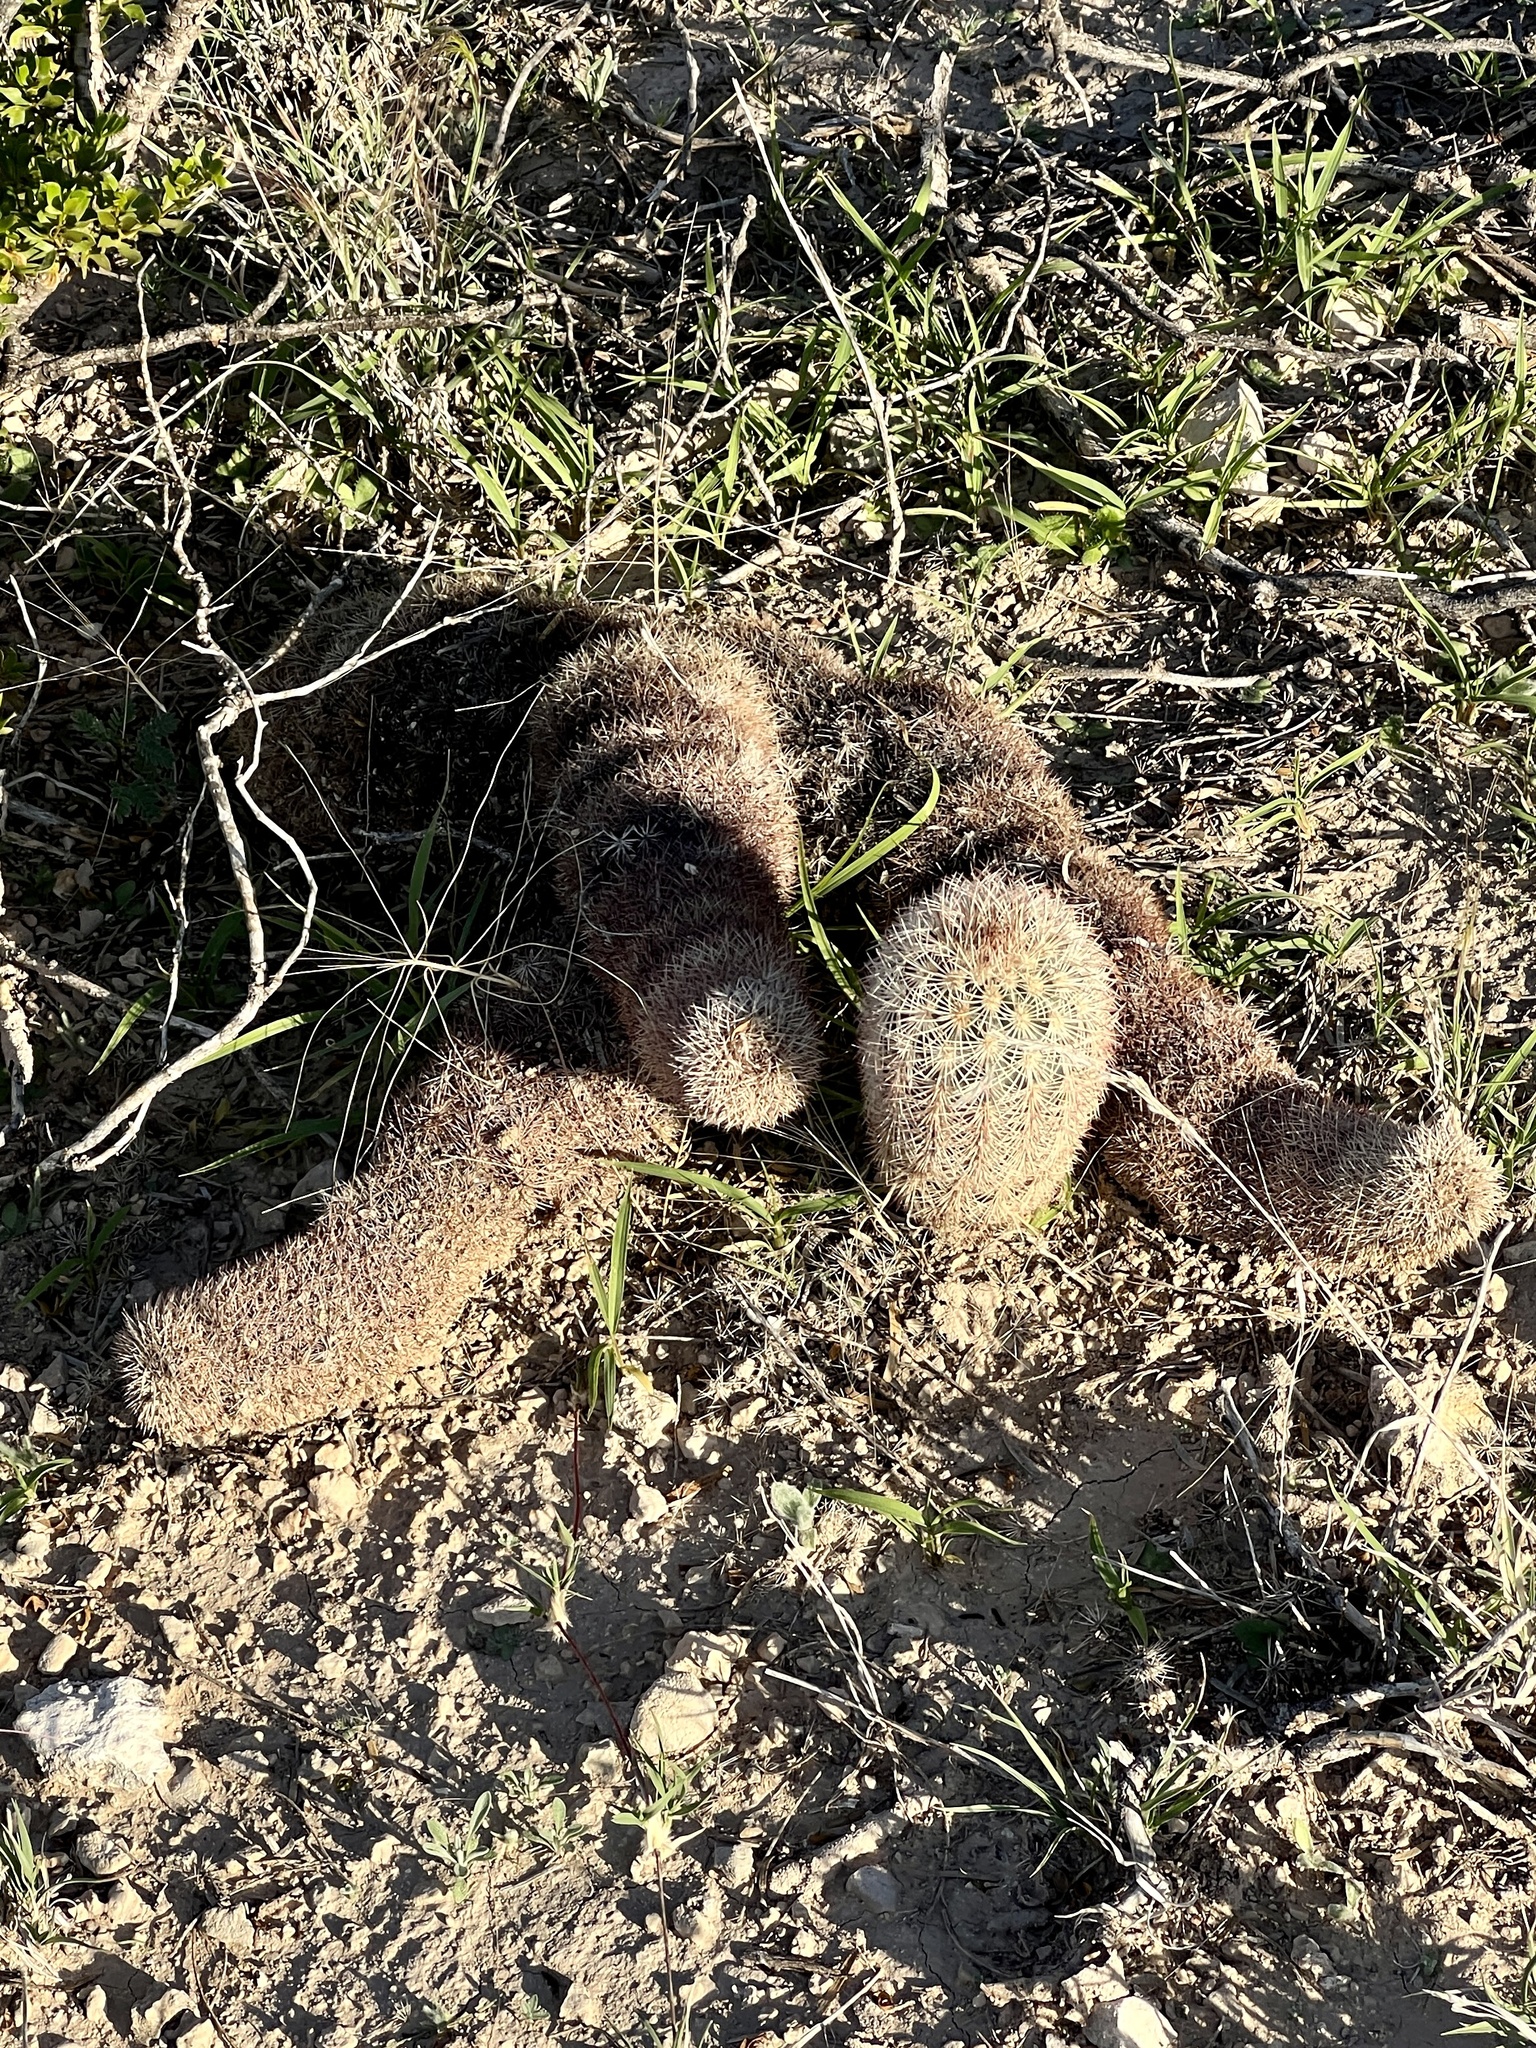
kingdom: Plantae
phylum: Tracheophyta
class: Magnoliopsida
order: Caryophyllales
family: Cactaceae
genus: Echinocereus
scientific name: Echinocereus dasyacanthus
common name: Spiny hedgehog cactus
